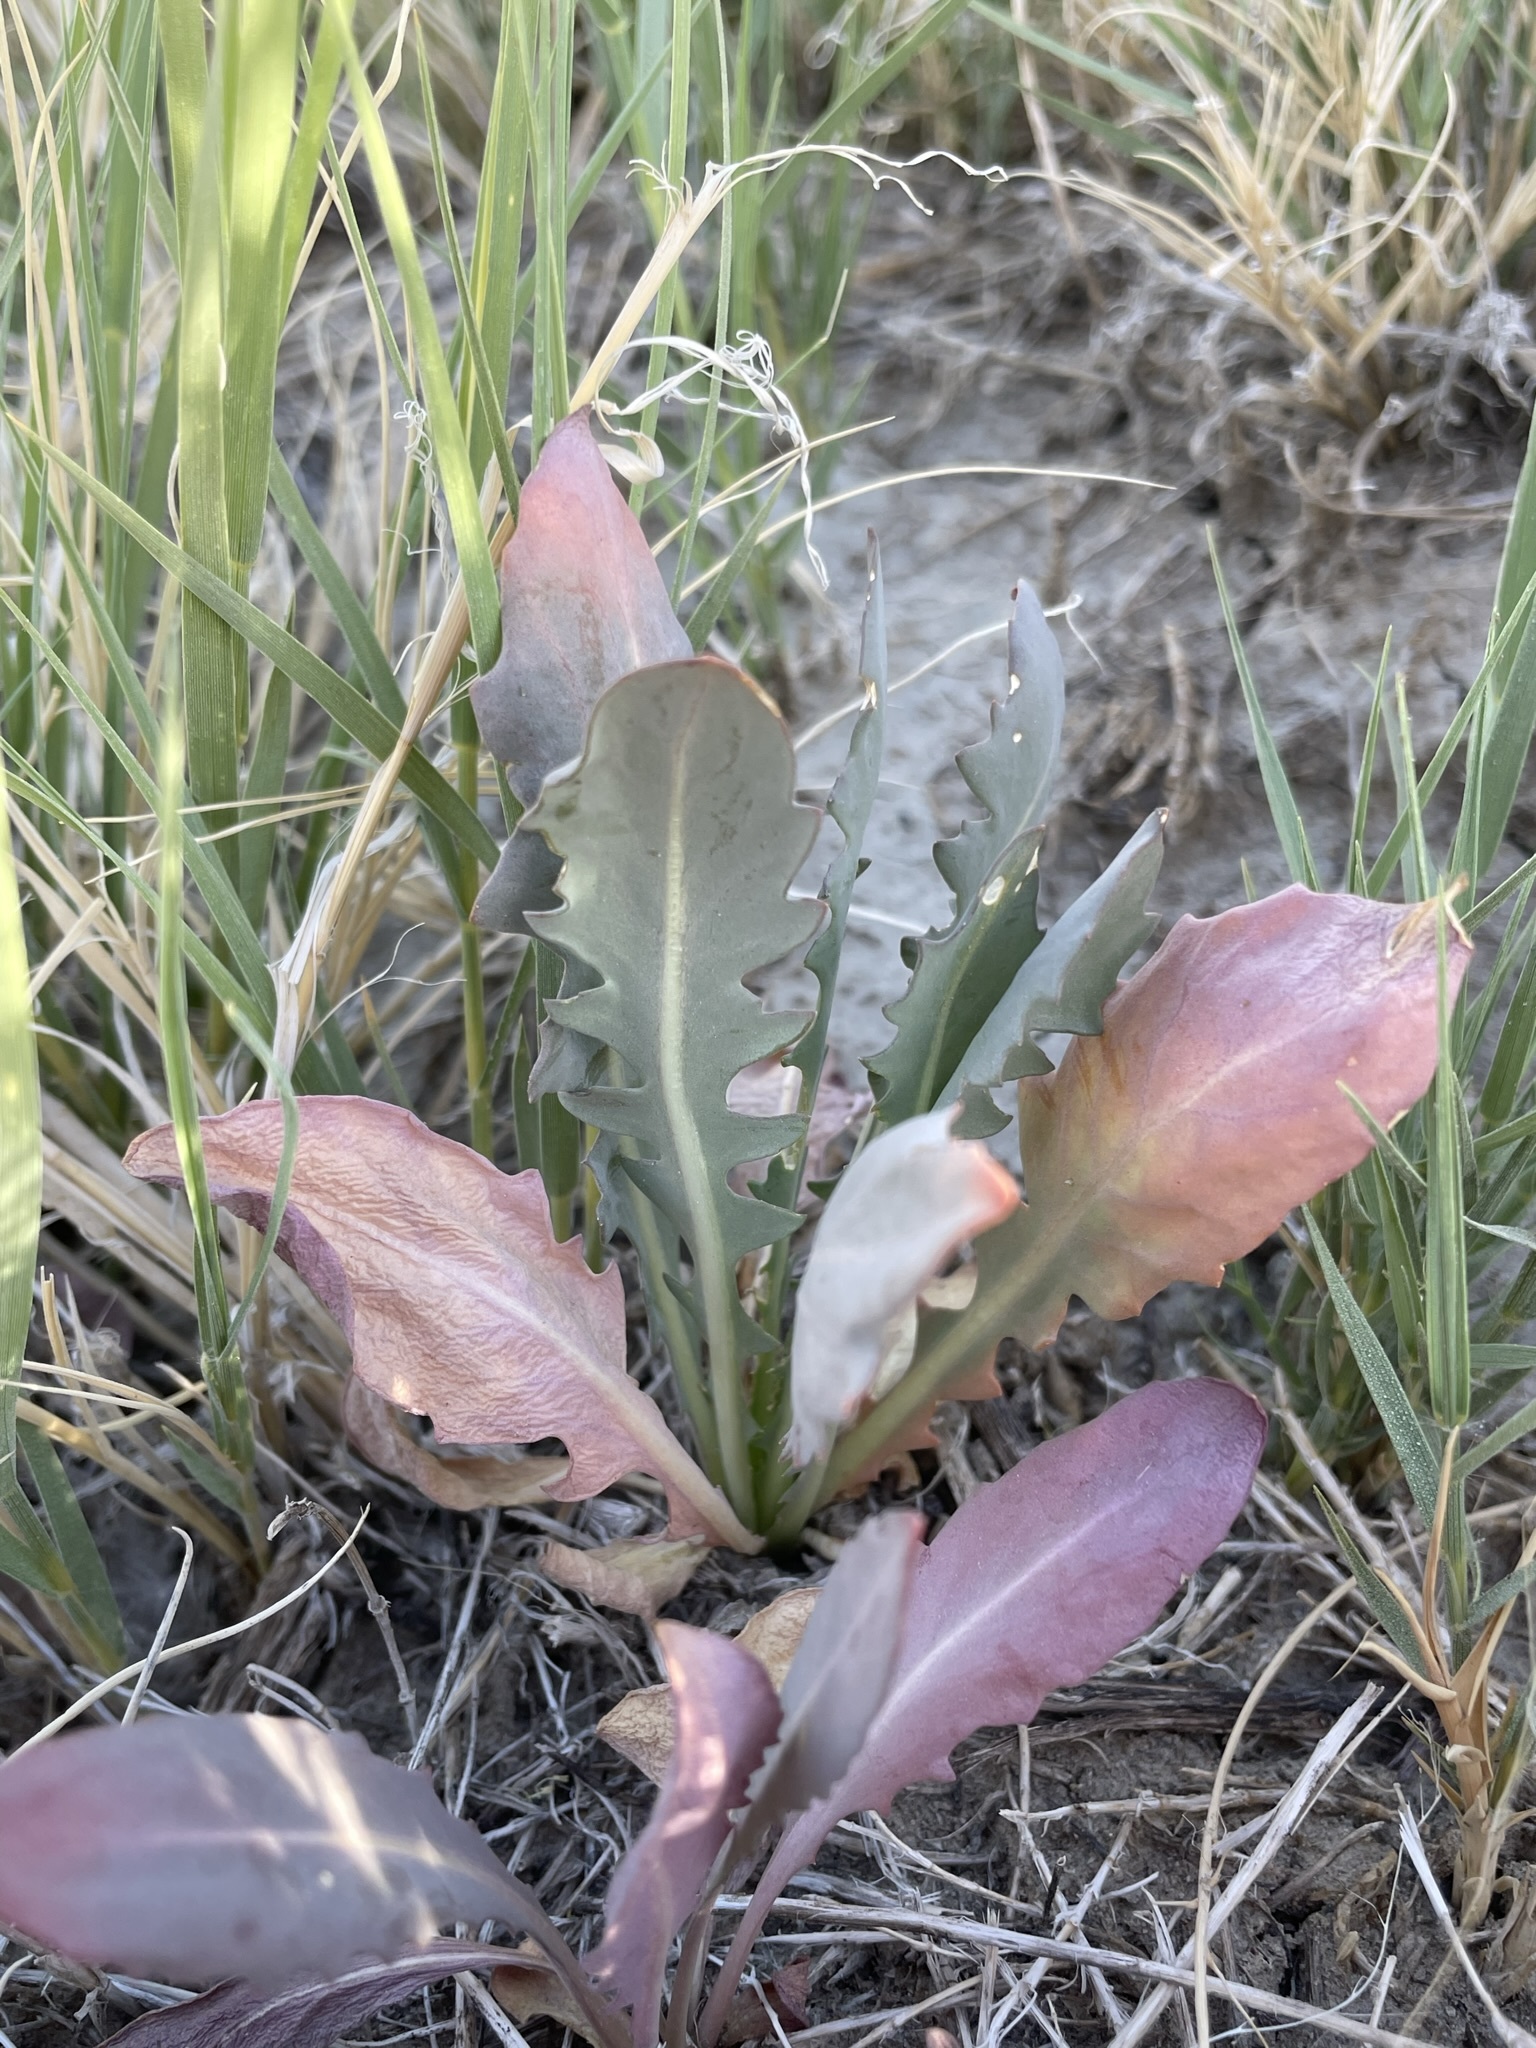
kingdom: Plantae
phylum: Tracheophyta
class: Magnoliopsida
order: Brassicales
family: Brassicaceae
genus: Thelypodium
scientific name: Thelypodium crispum
